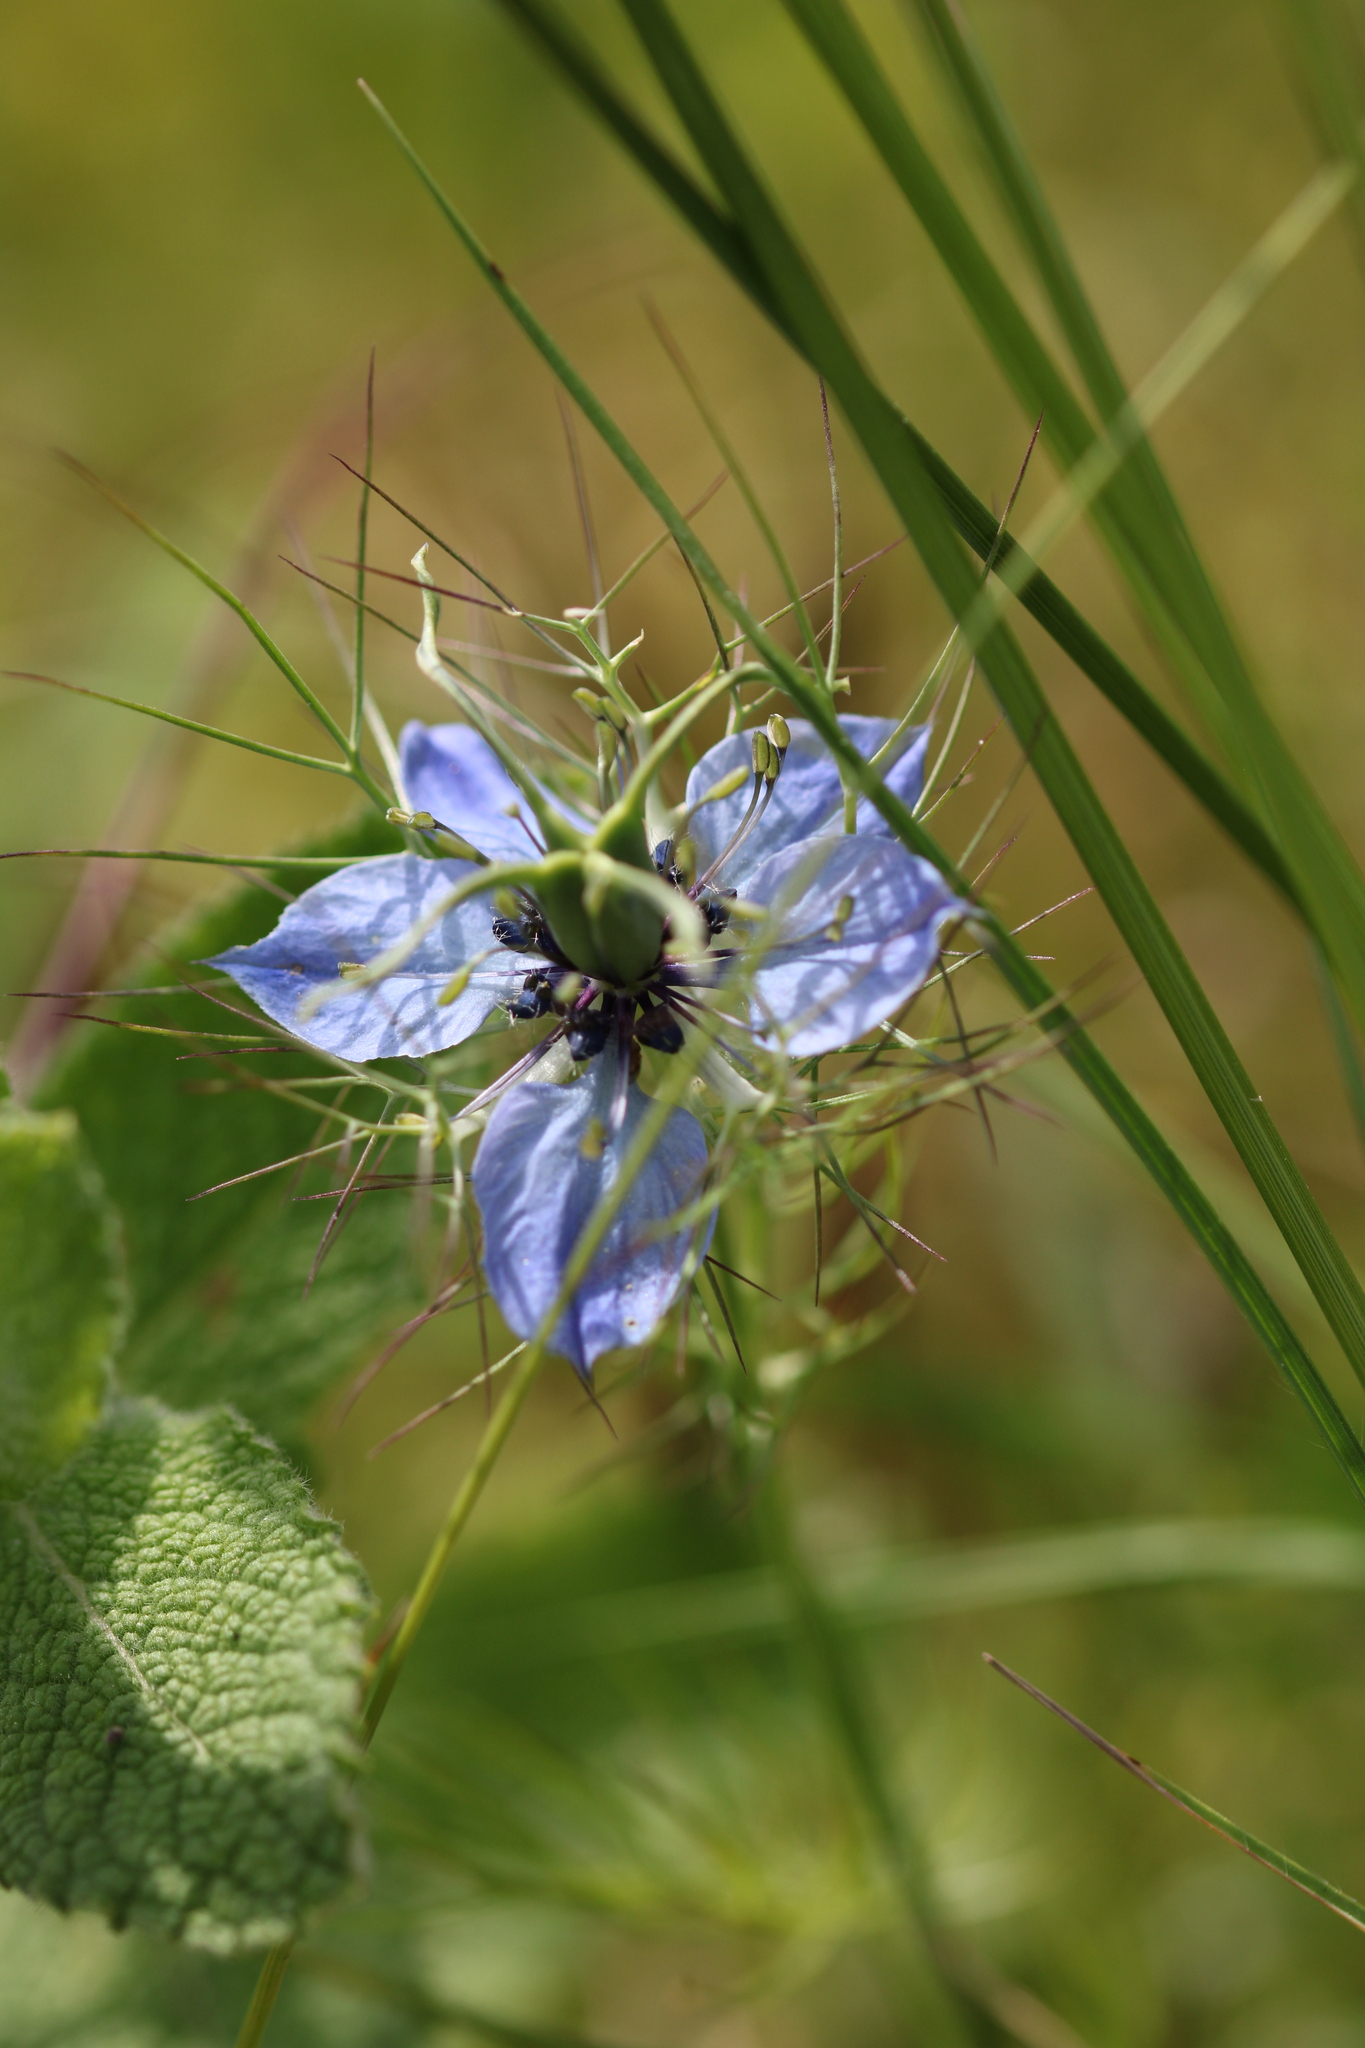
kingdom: Plantae
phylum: Tracheophyta
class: Magnoliopsida
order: Ranunculales
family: Ranunculaceae
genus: Nigella
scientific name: Nigella damascena
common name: Love-in-a-mist
